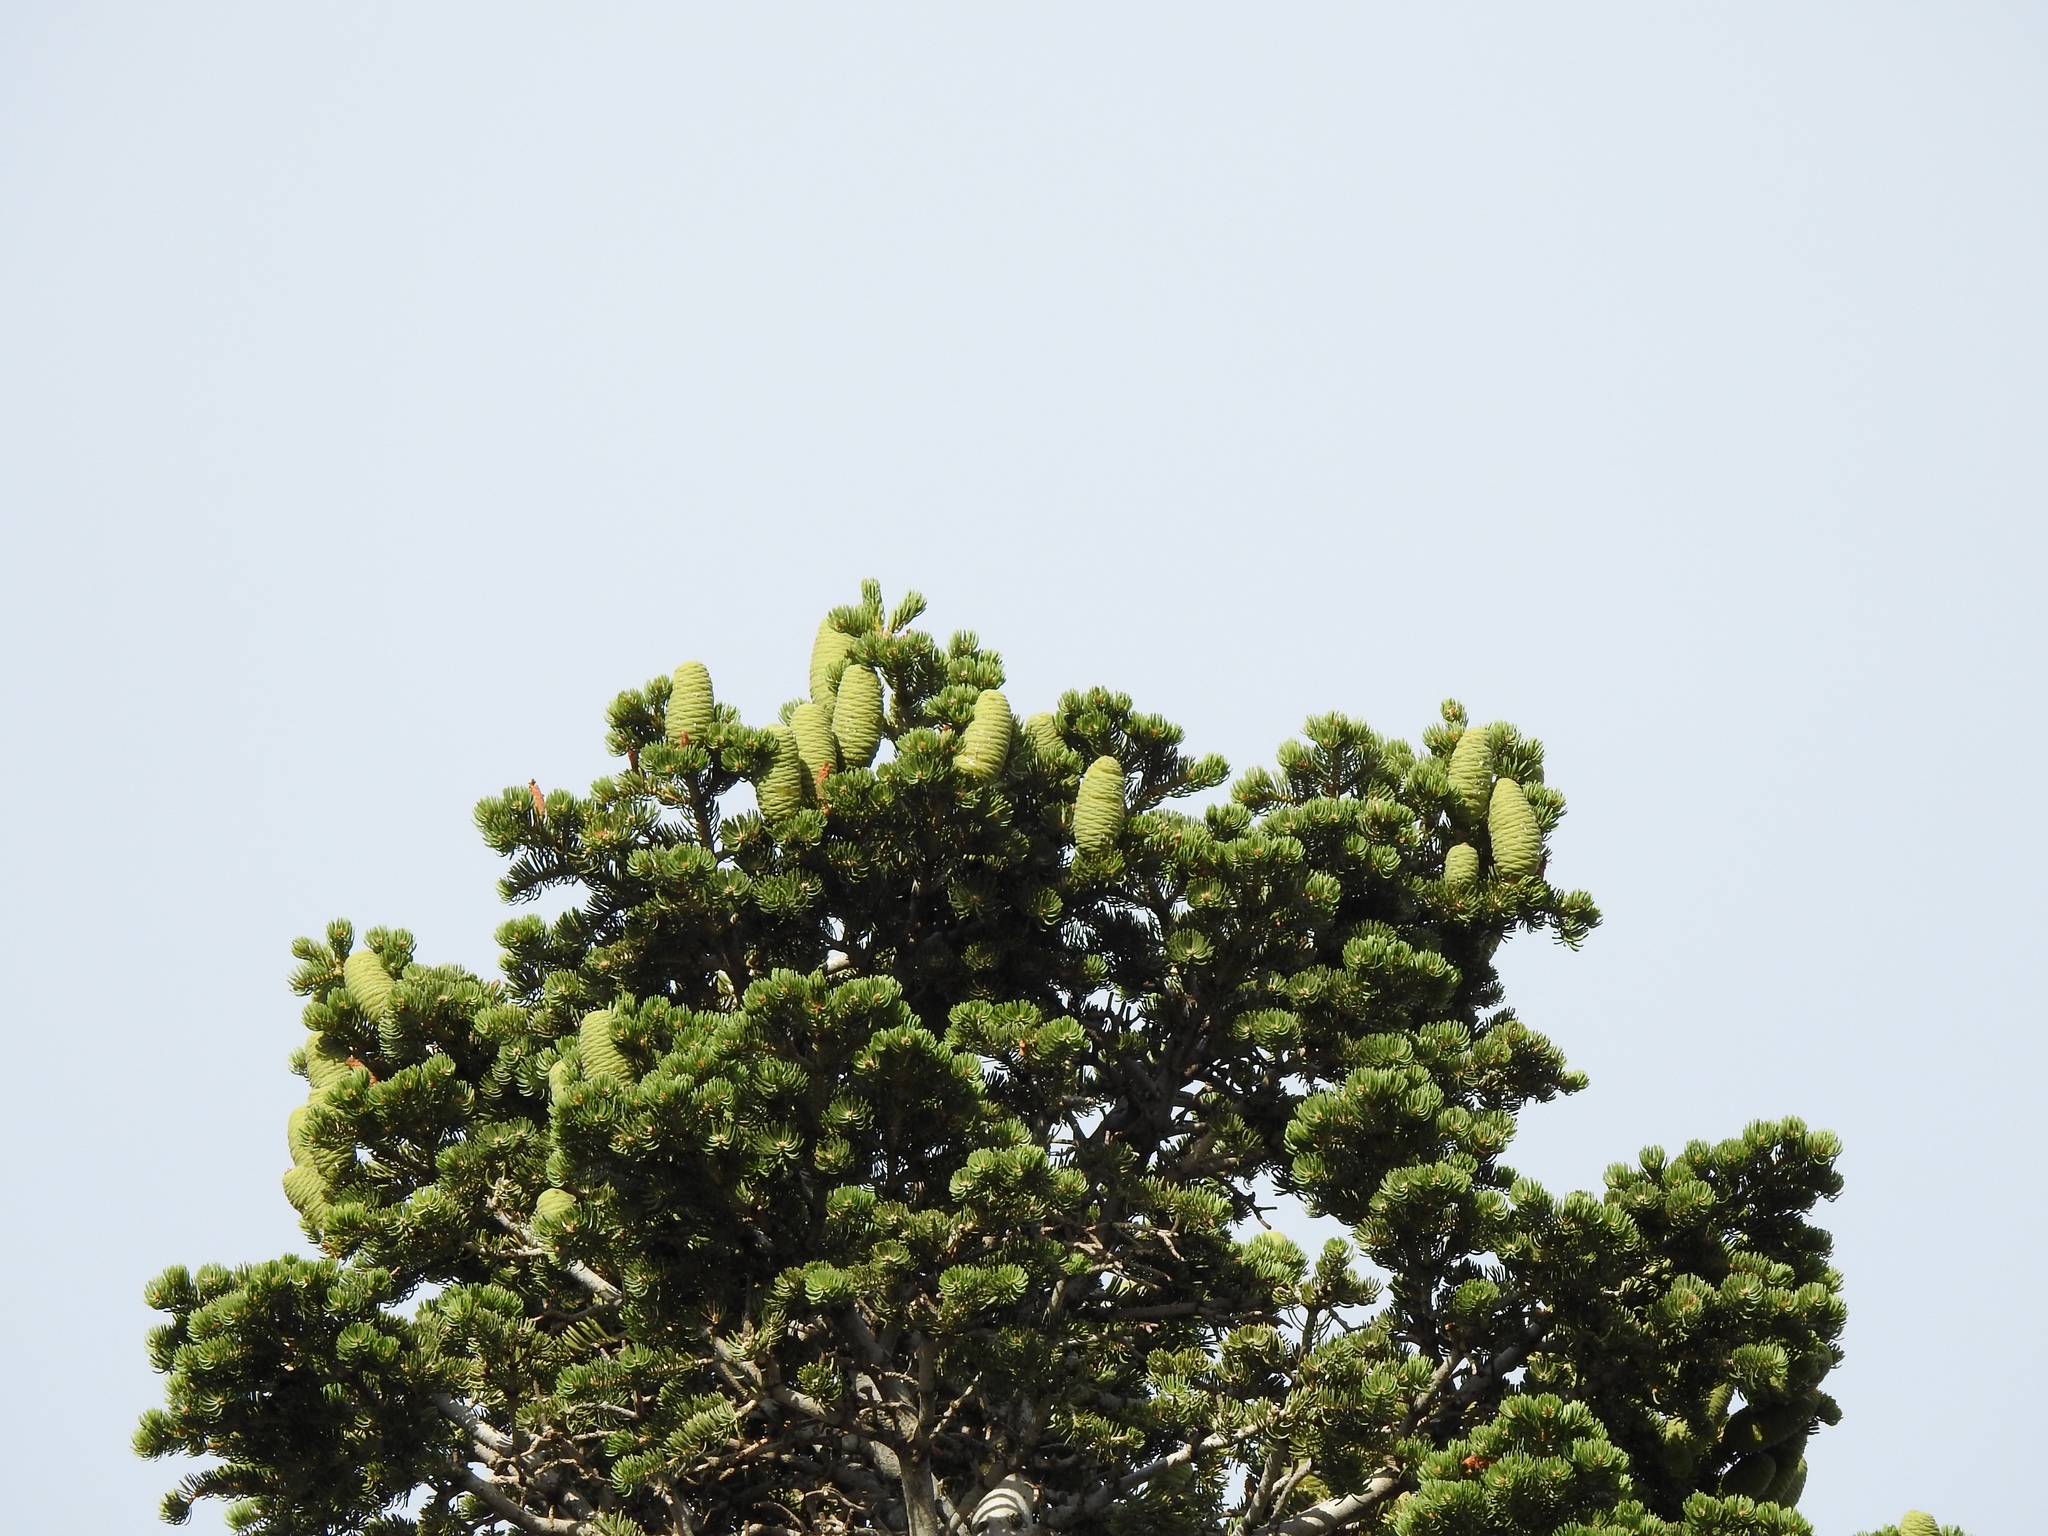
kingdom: Plantae
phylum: Tracheophyta
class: Pinopsida
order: Pinales
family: Pinaceae
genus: Abies
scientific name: Abies concolor
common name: Colorado fir
